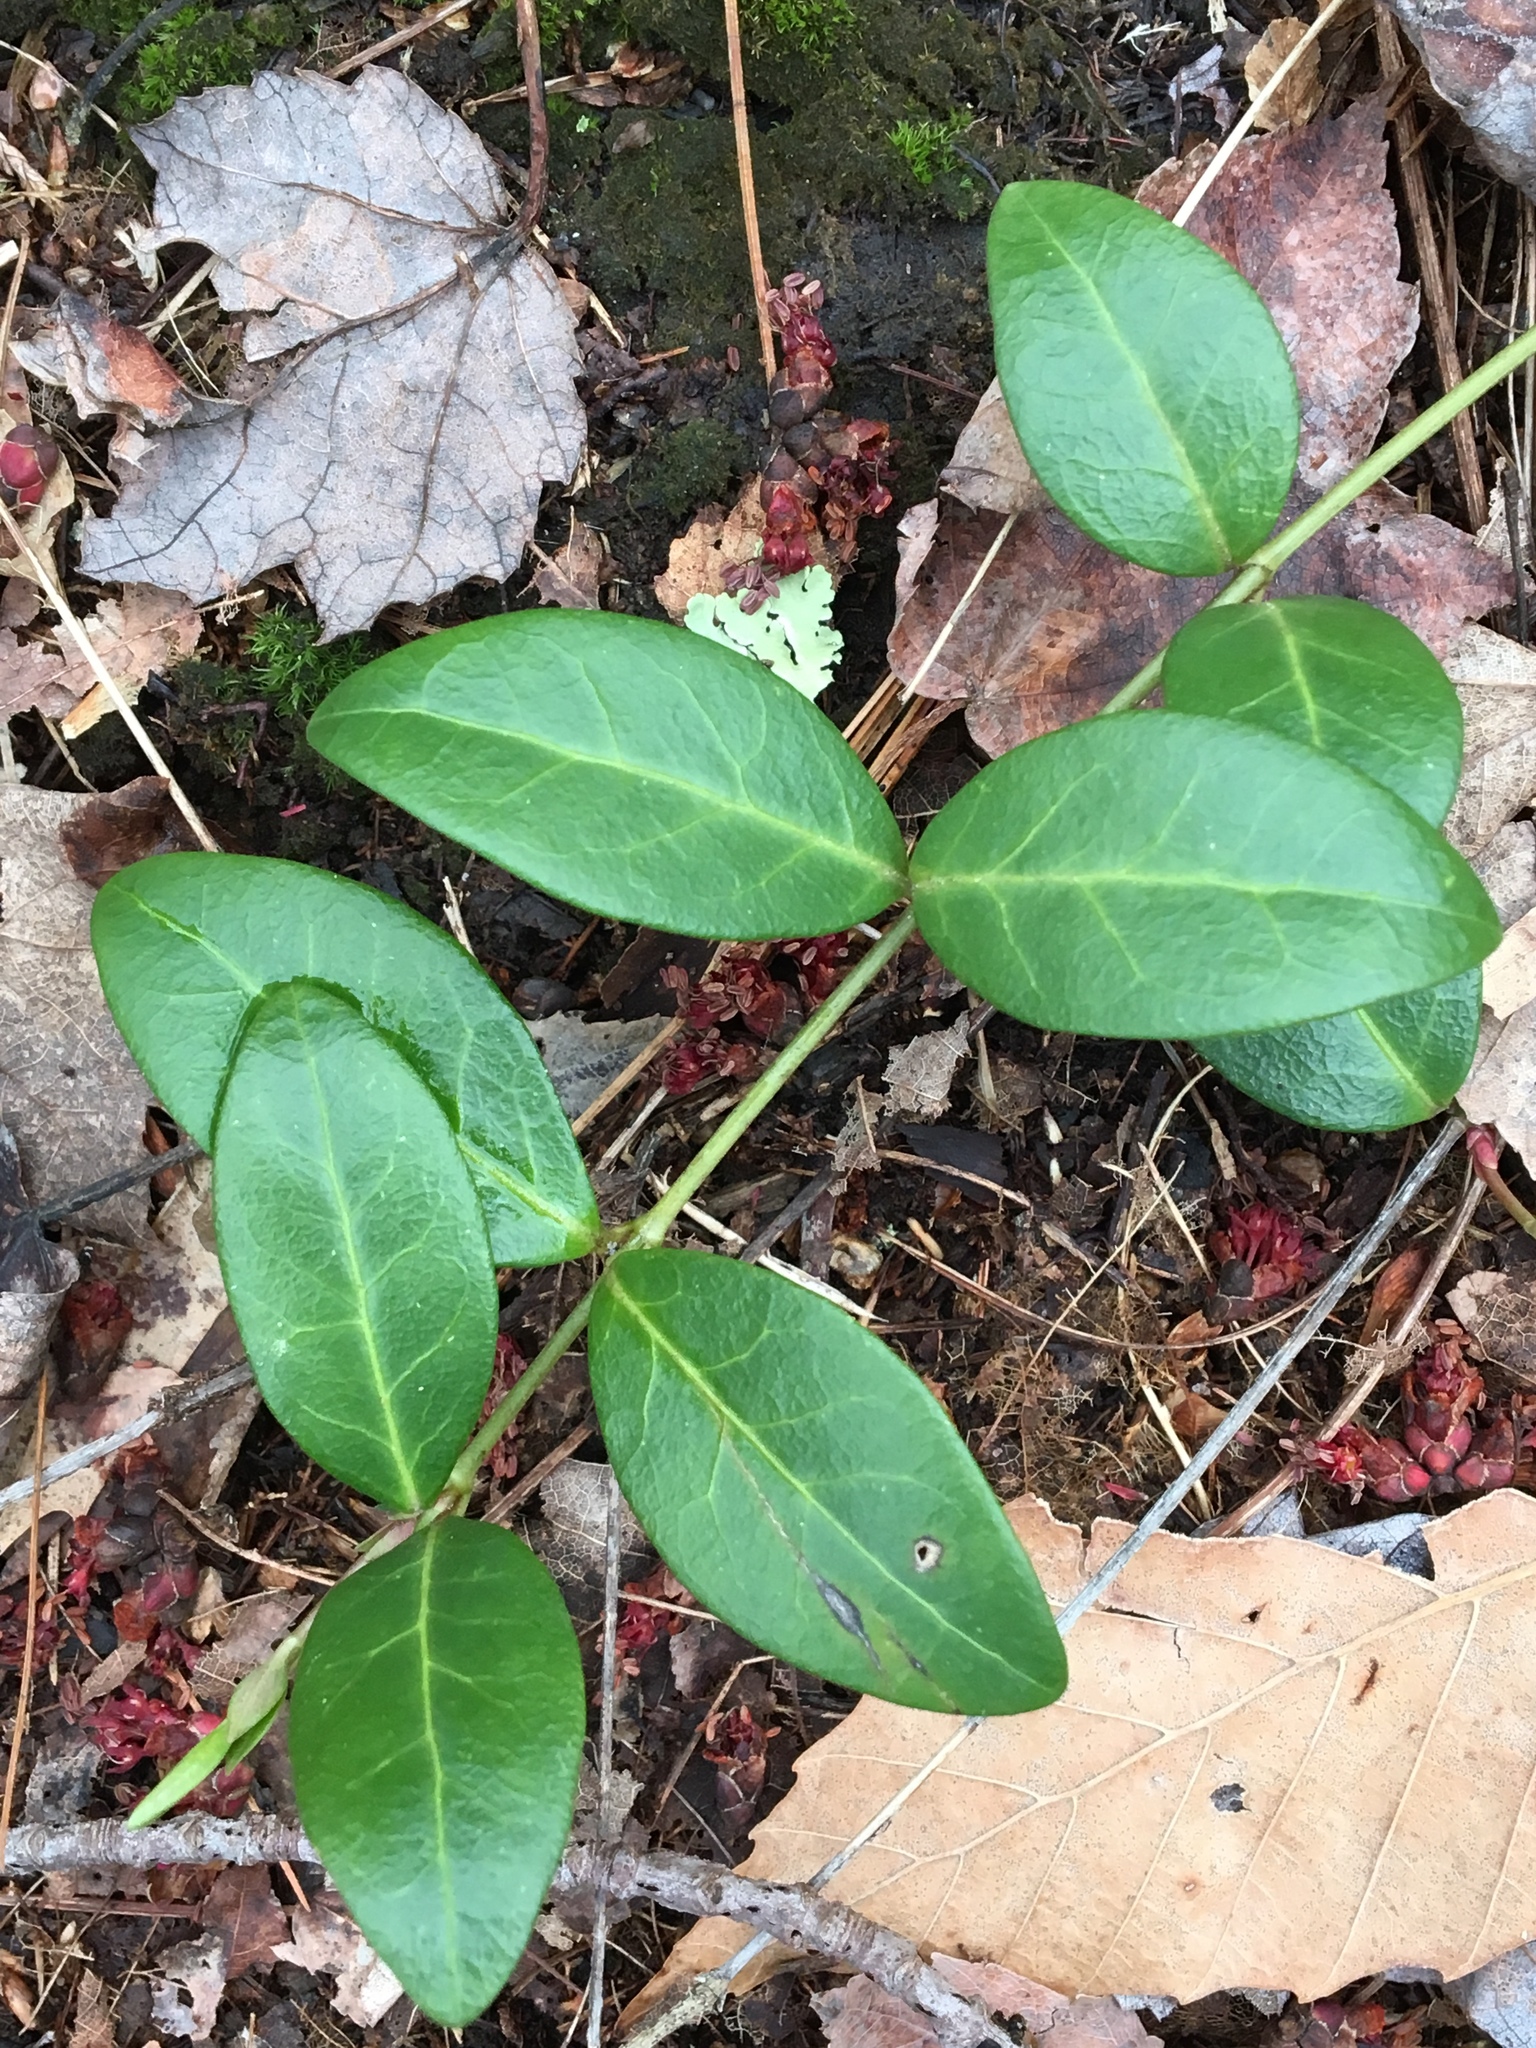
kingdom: Plantae
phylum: Tracheophyta
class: Magnoliopsida
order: Gentianales
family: Apocynaceae
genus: Vinca
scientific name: Vinca minor
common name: Lesser periwinkle
